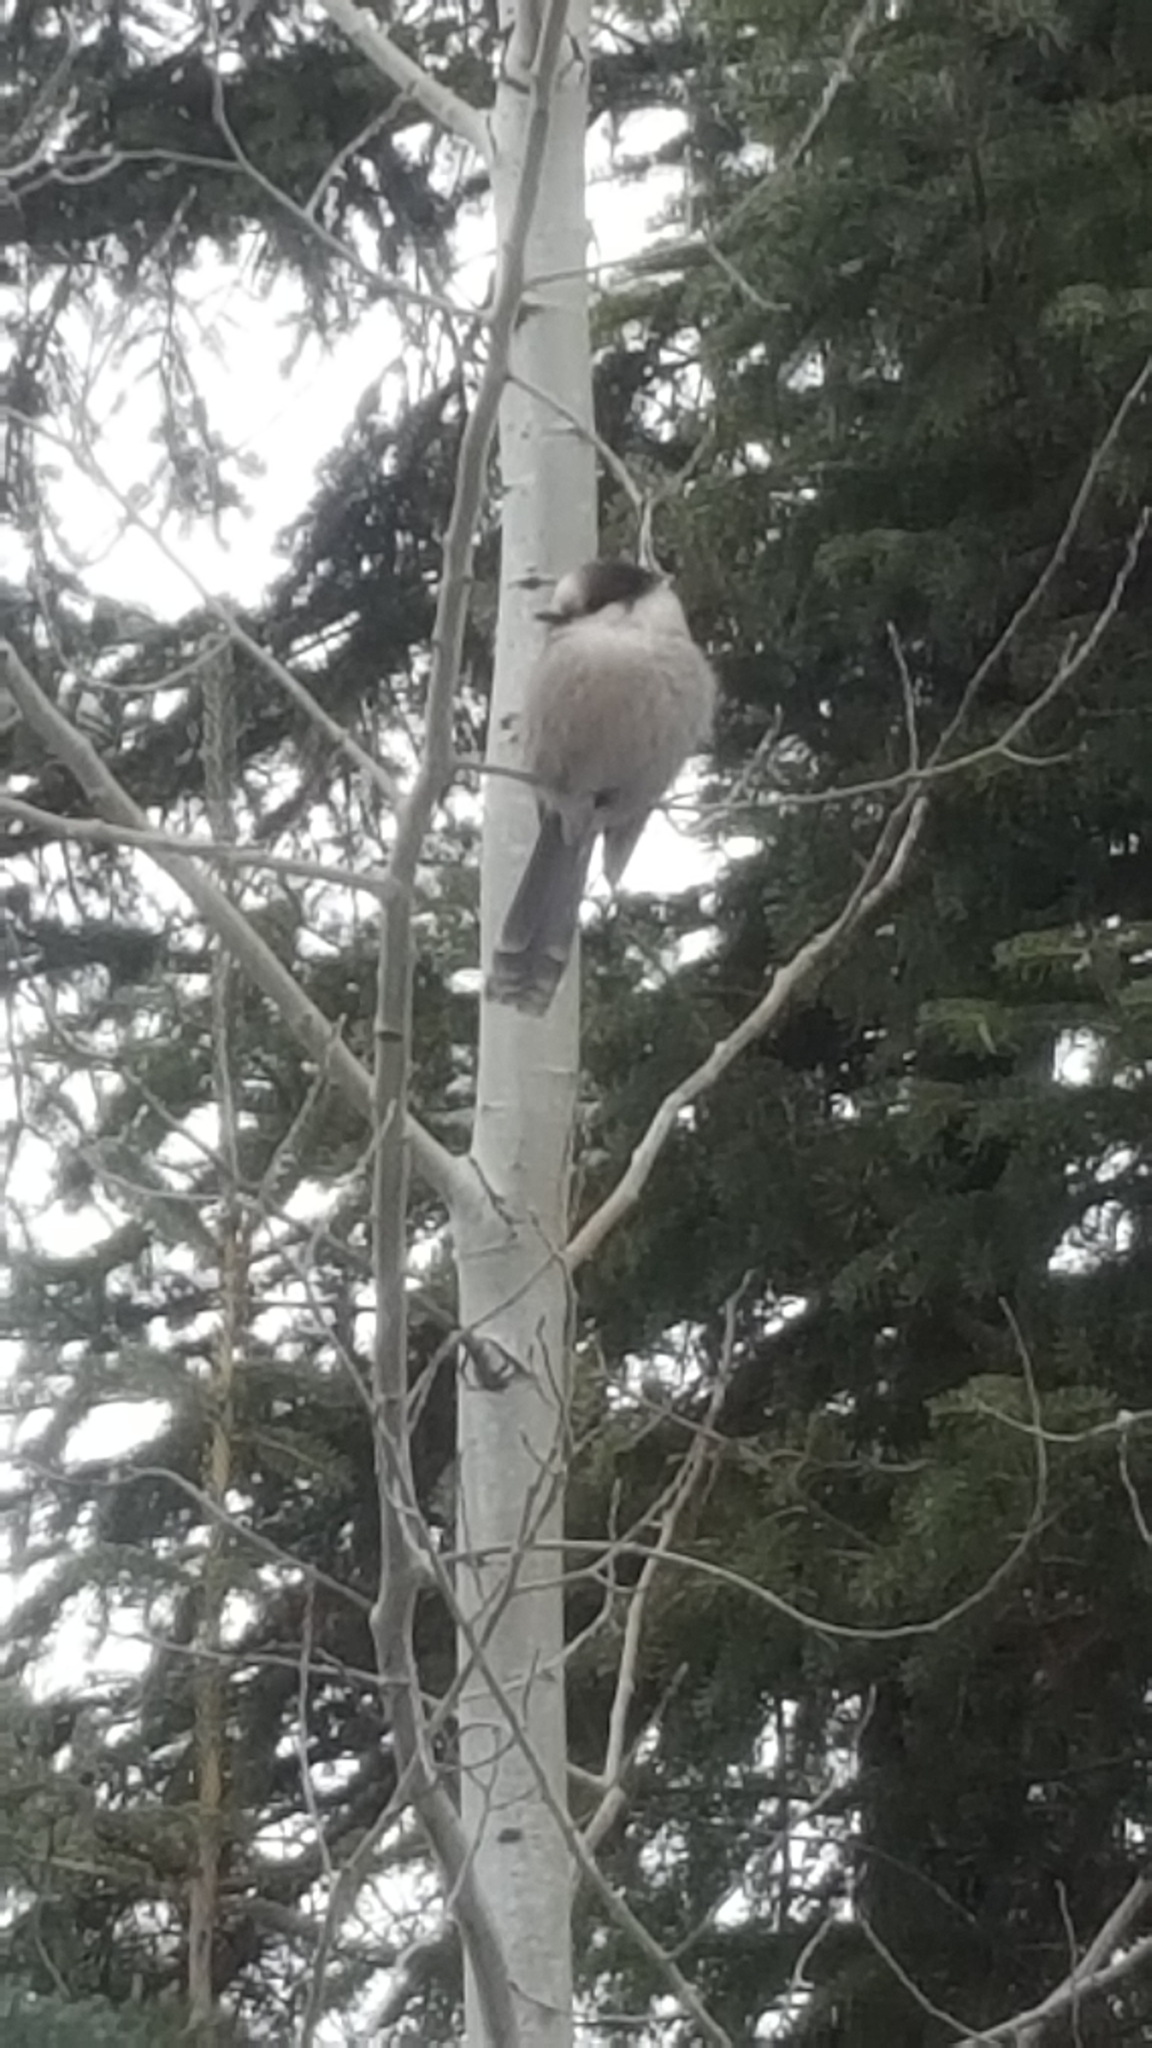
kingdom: Animalia
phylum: Chordata
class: Aves
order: Passeriformes
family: Corvidae
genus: Perisoreus
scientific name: Perisoreus canadensis
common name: Gray jay
